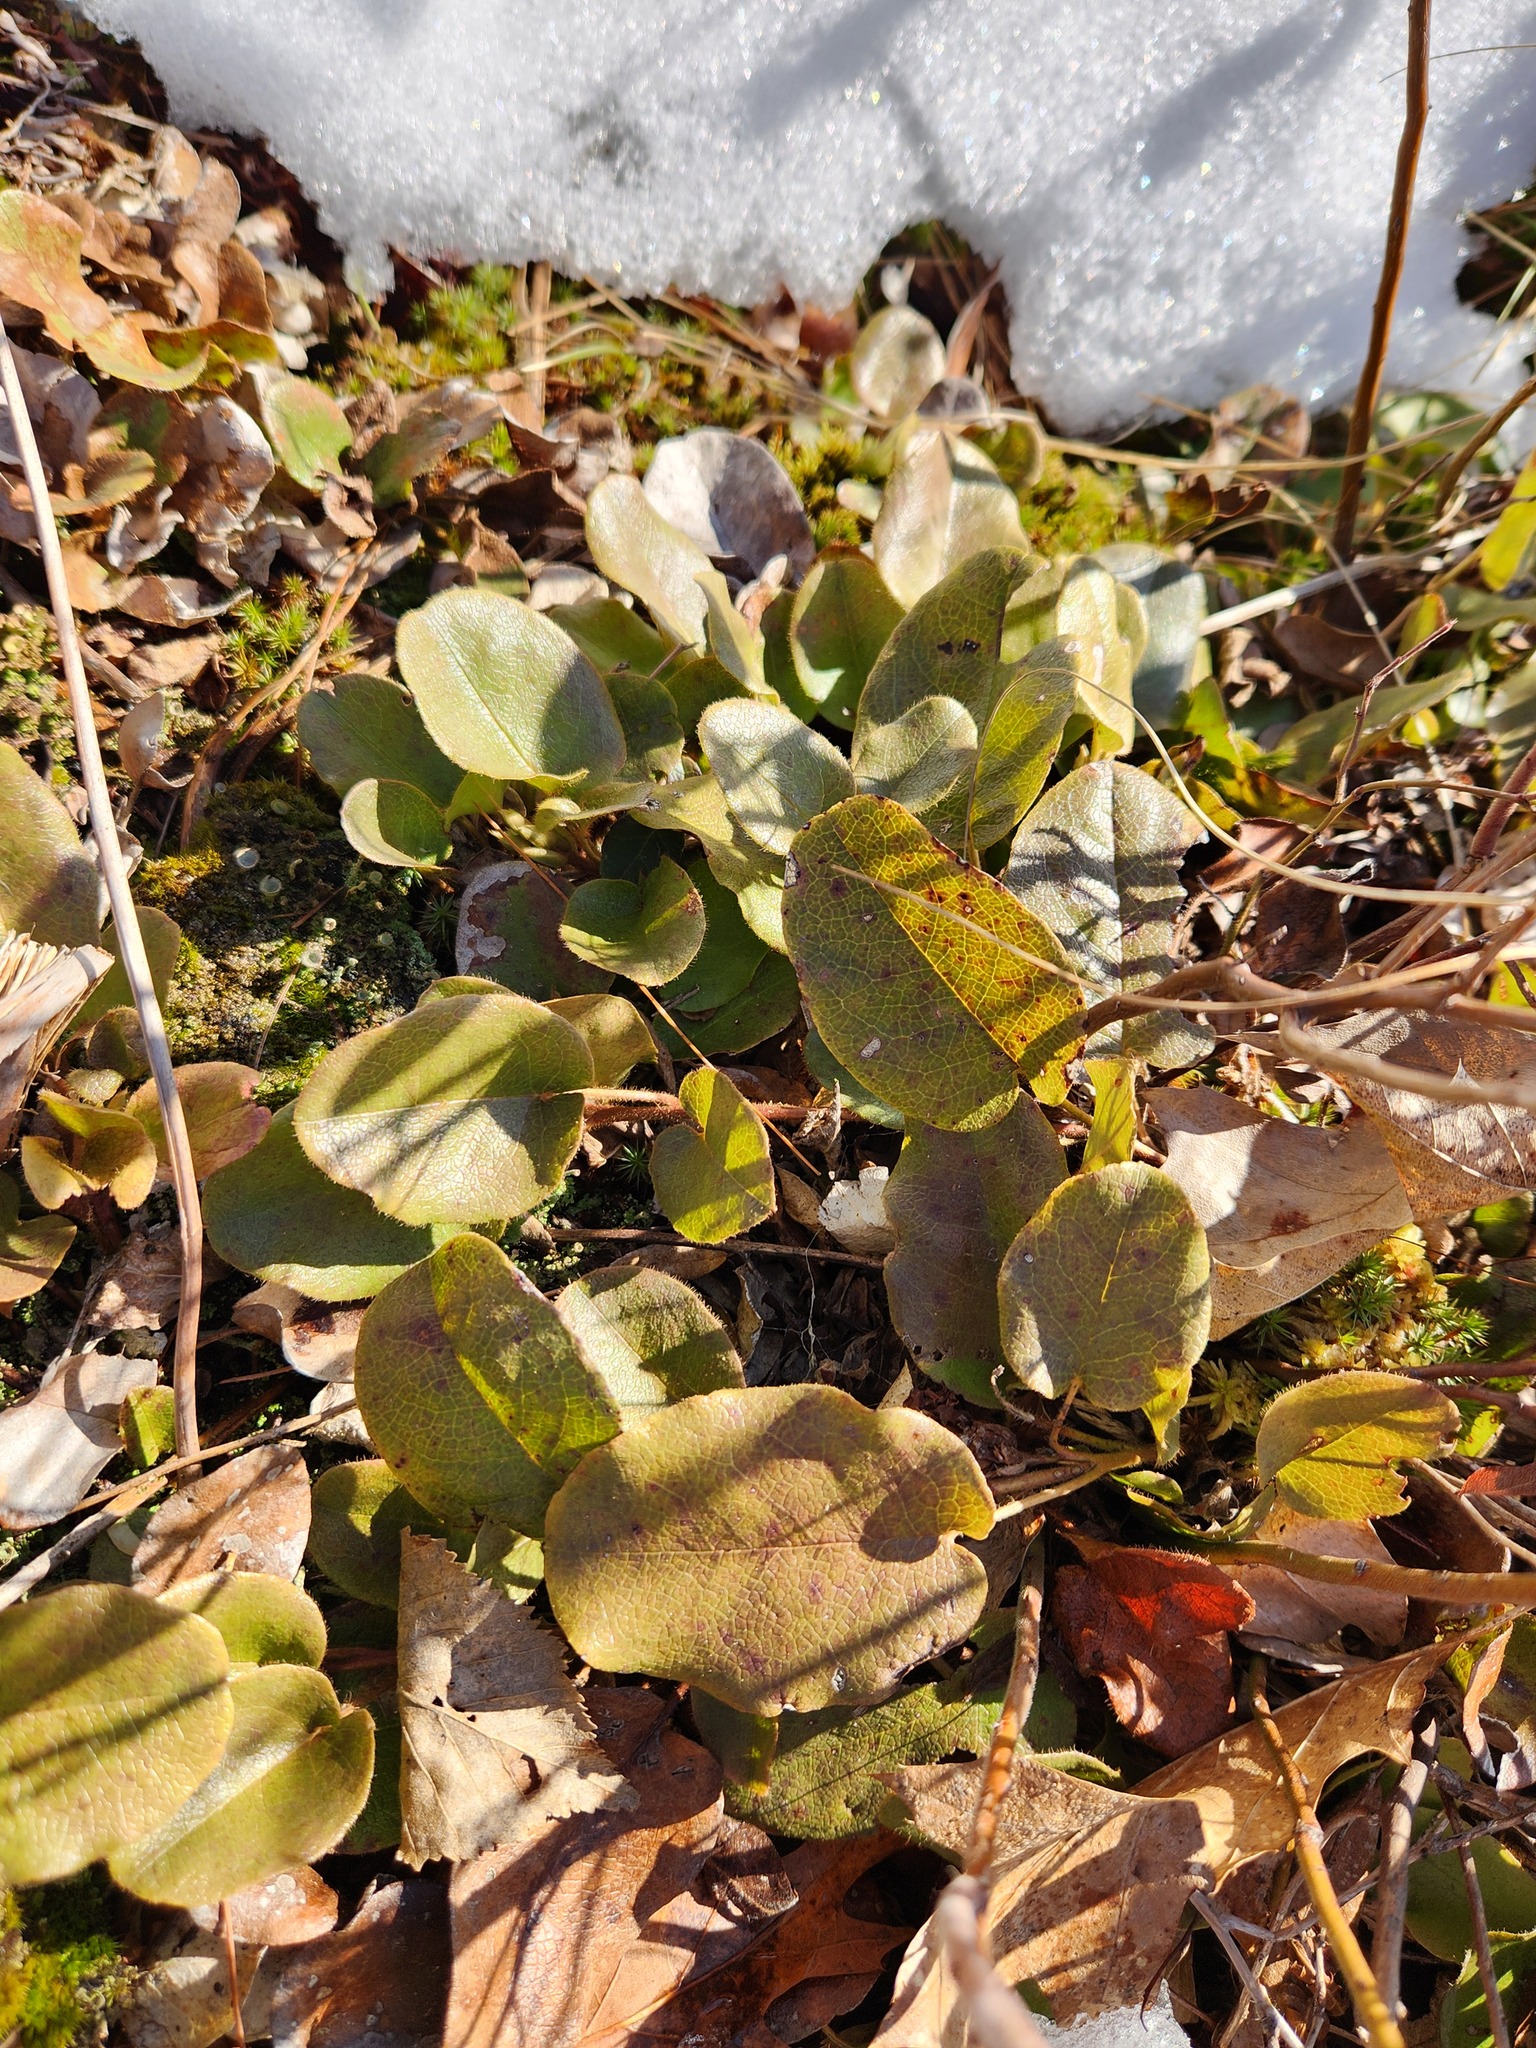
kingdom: Plantae
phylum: Tracheophyta
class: Magnoliopsida
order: Ericales
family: Ericaceae
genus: Epigaea
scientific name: Epigaea repens
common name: Gravelroot
